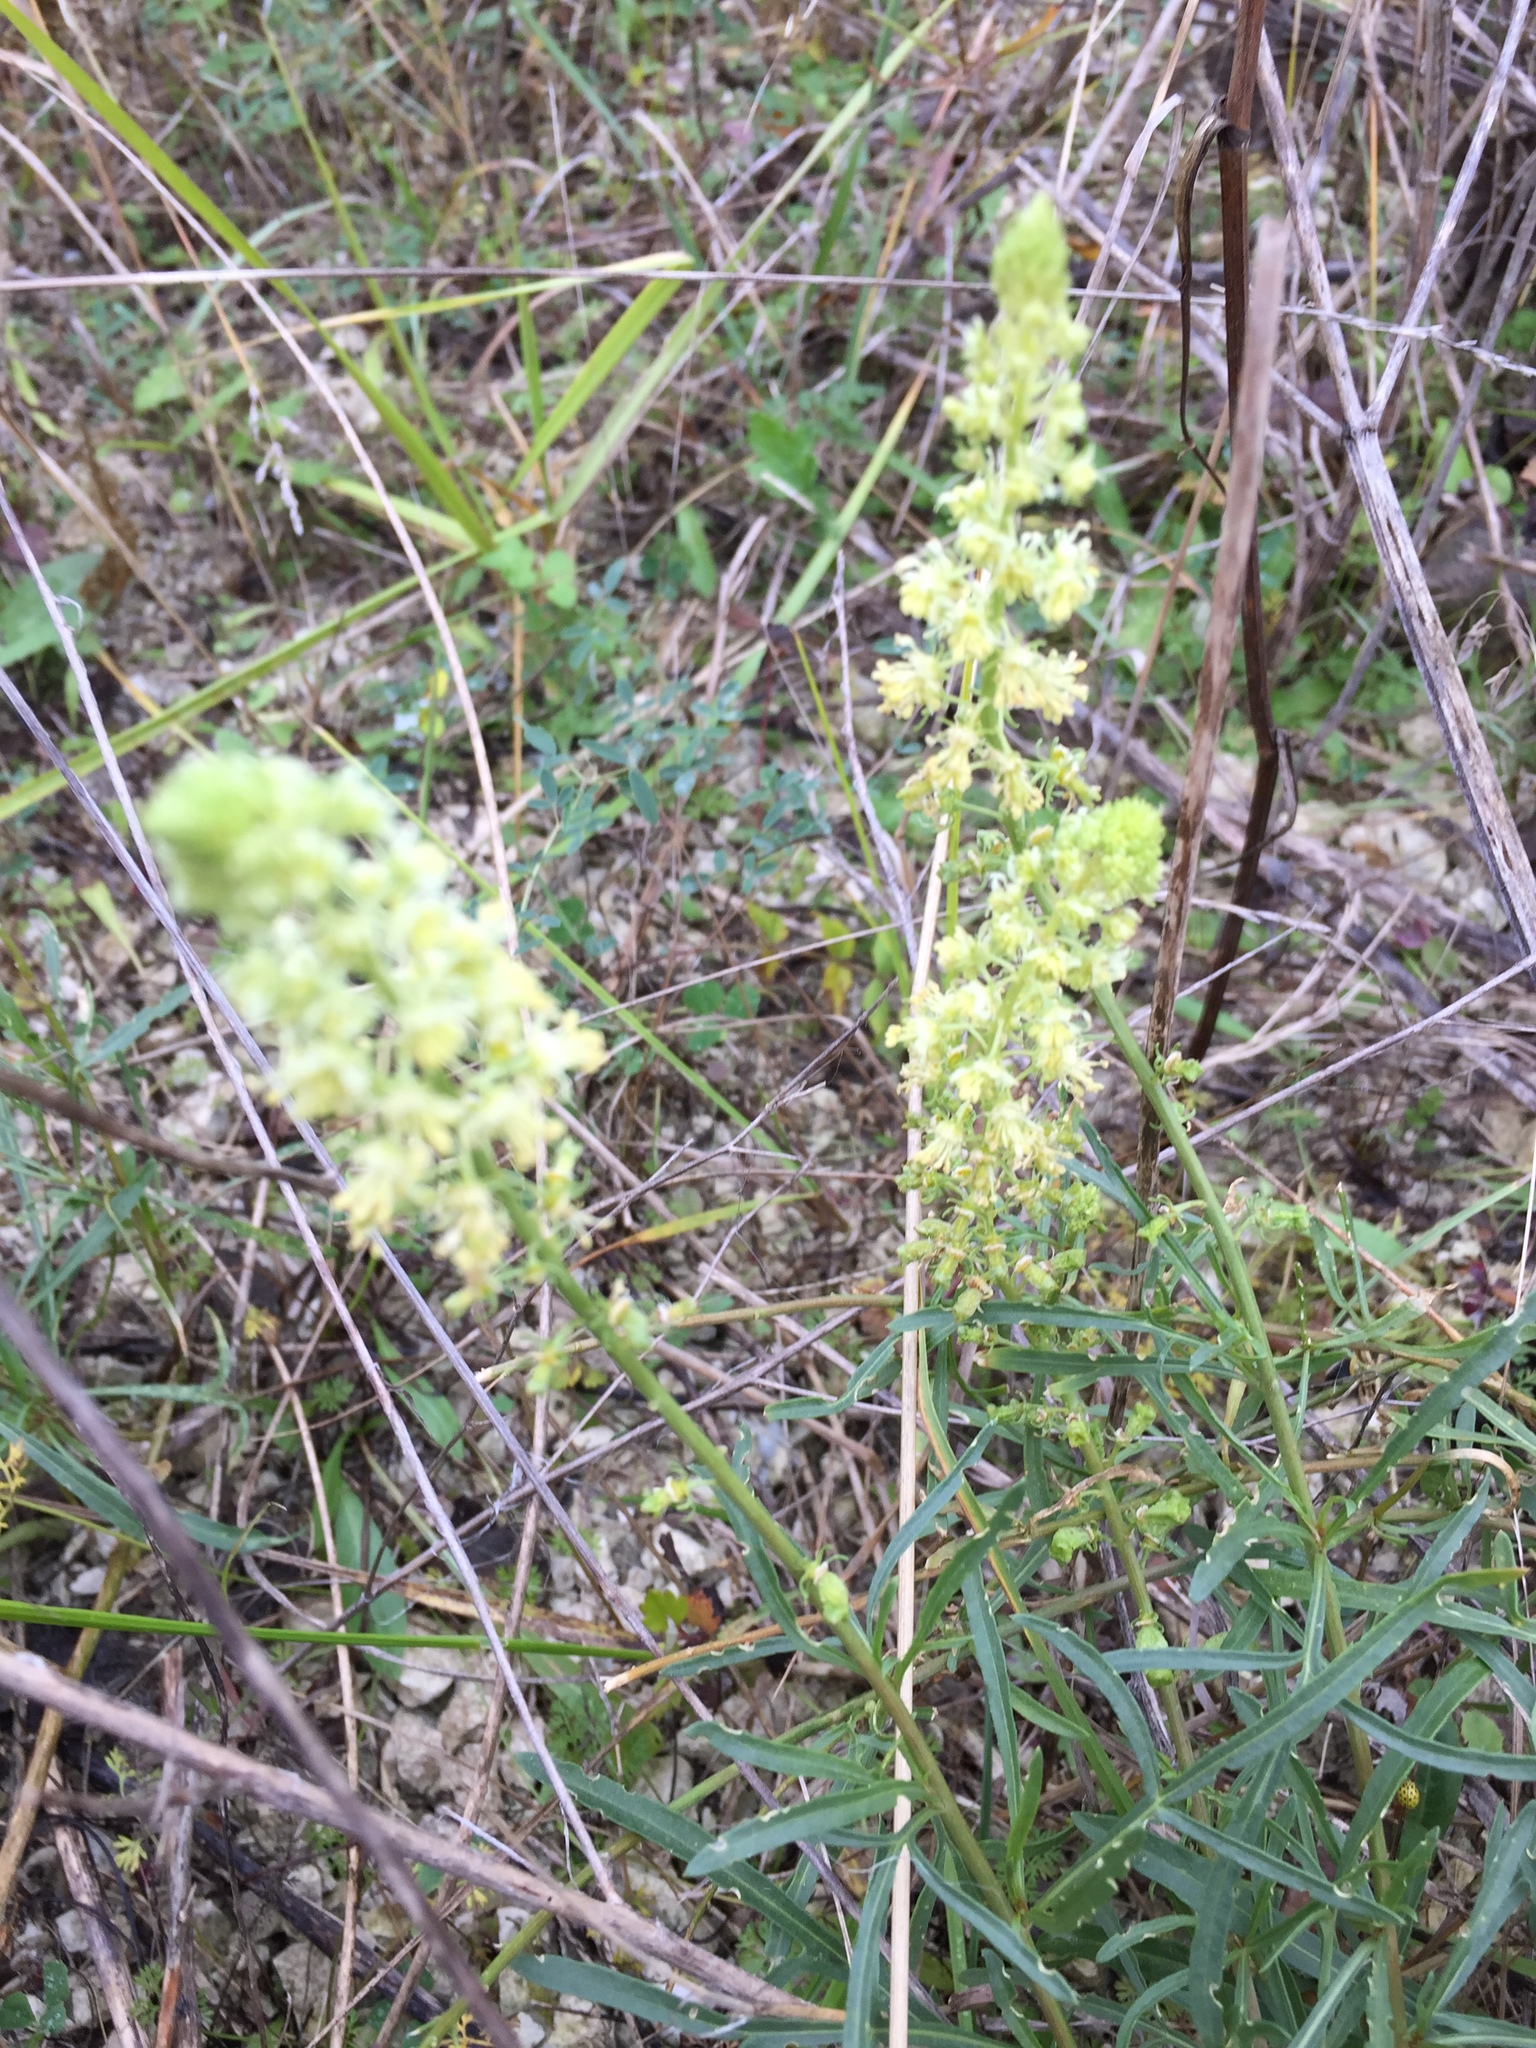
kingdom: Plantae
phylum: Tracheophyta
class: Magnoliopsida
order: Brassicales
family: Resedaceae
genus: Reseda
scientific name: Reseda lutea
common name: Wild mignonette
